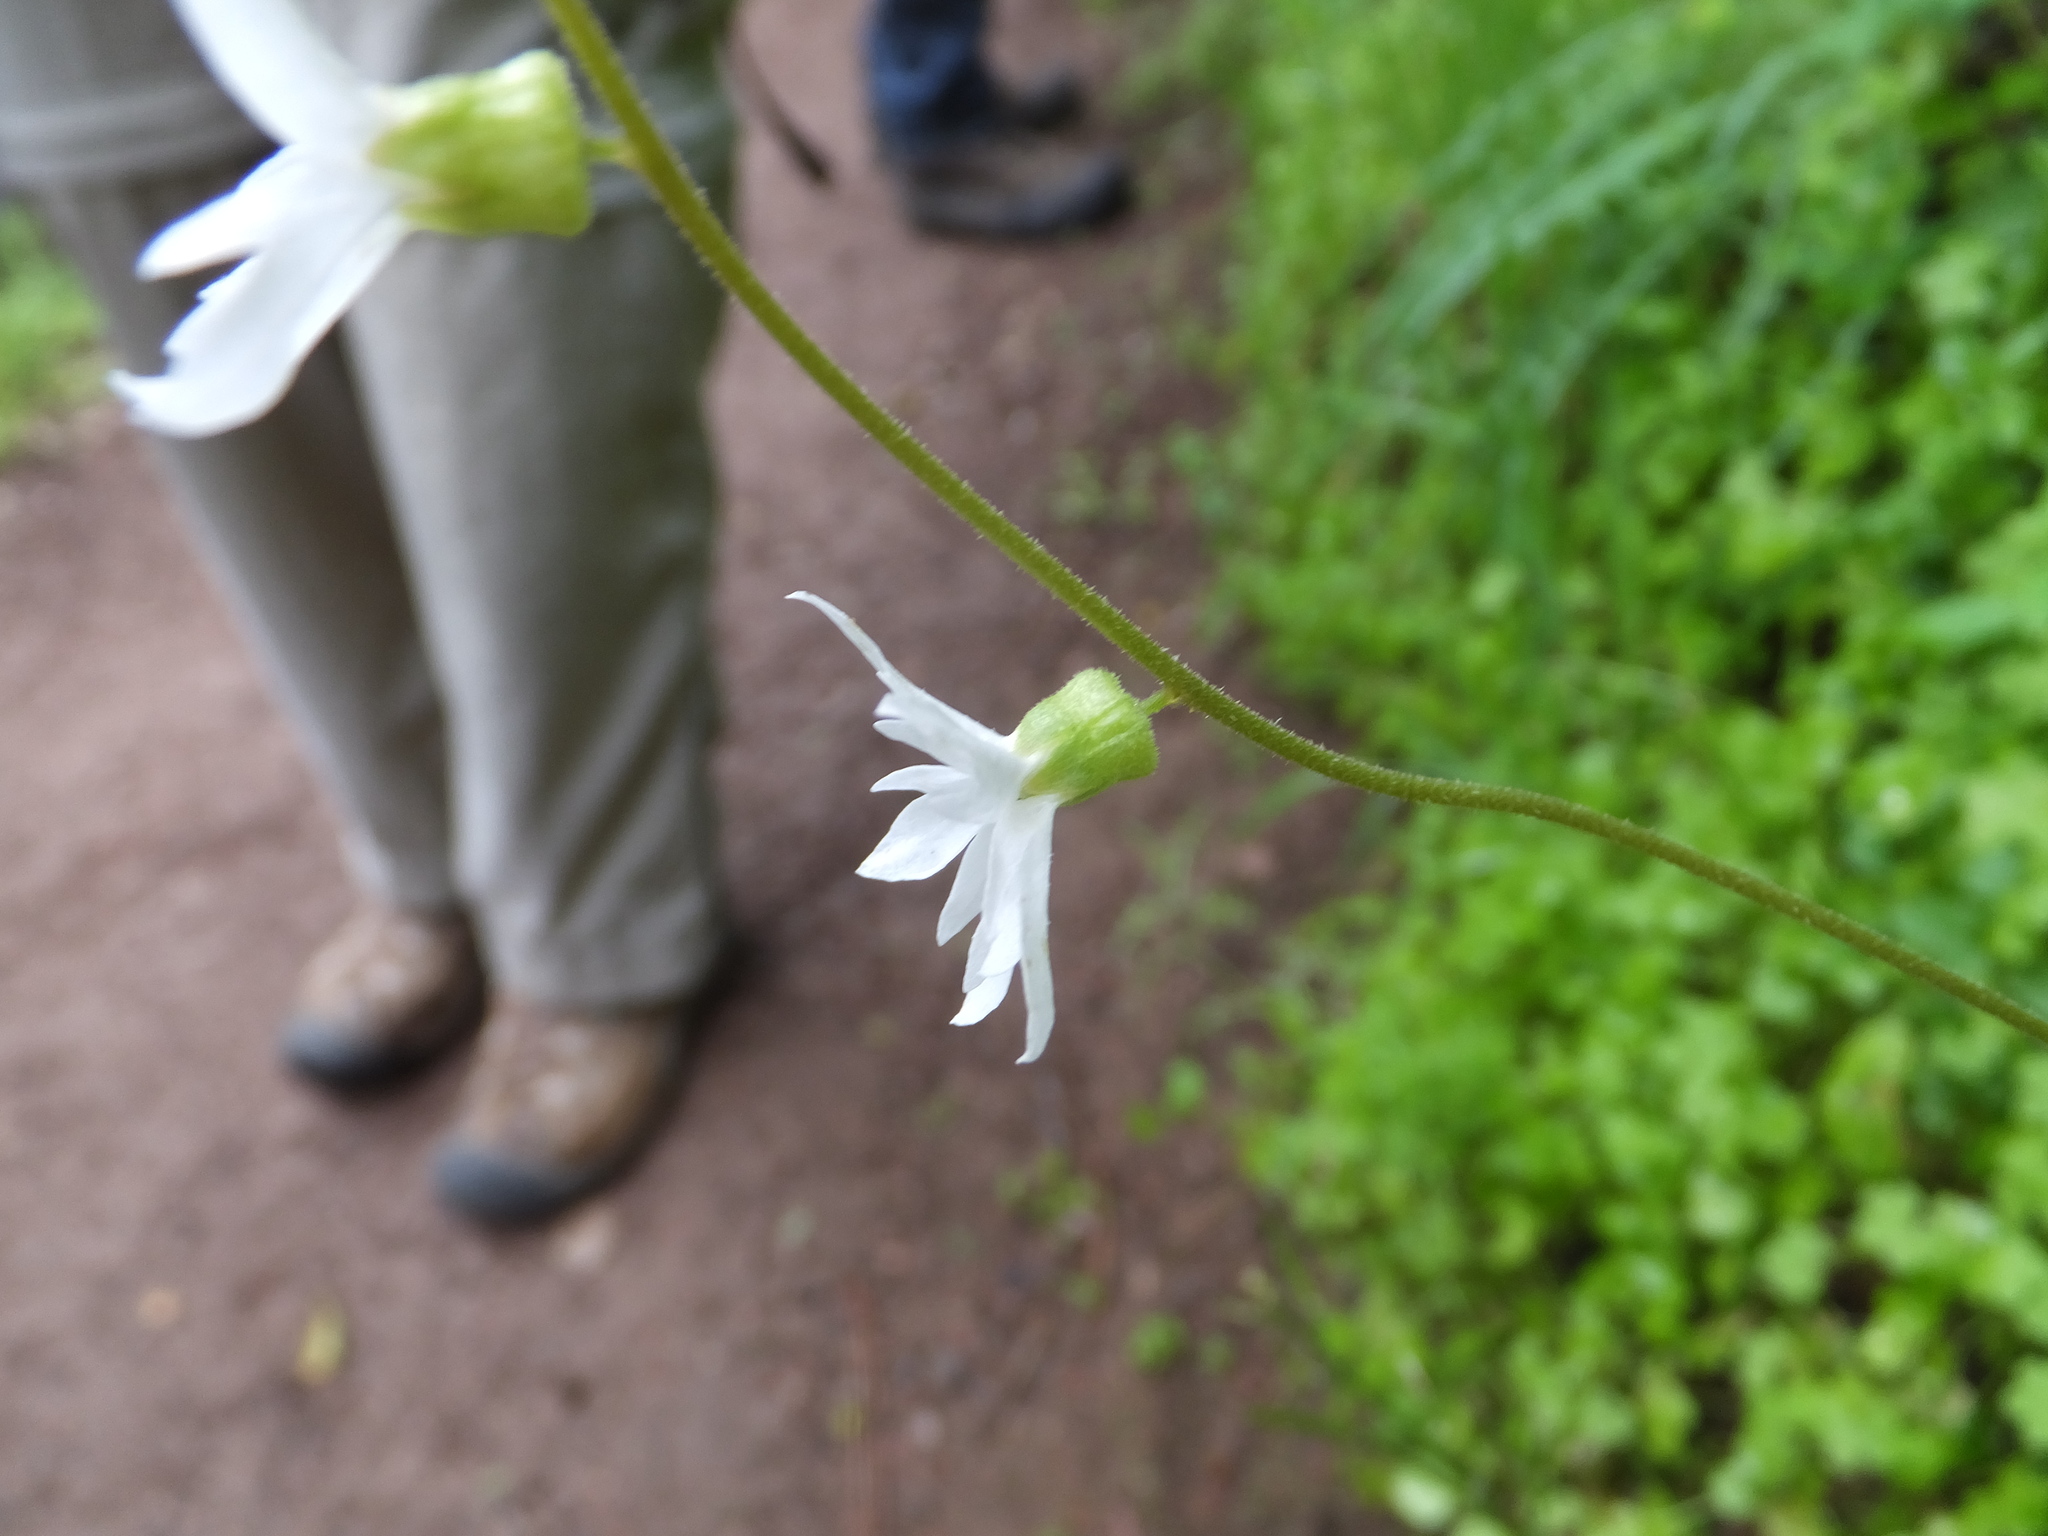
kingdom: Plantae
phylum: Tracheophyta
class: Magnoliopsida
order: Saxifragales
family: Saxifragaceae
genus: Lithophragma
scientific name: Lithophragma heterophyllum
